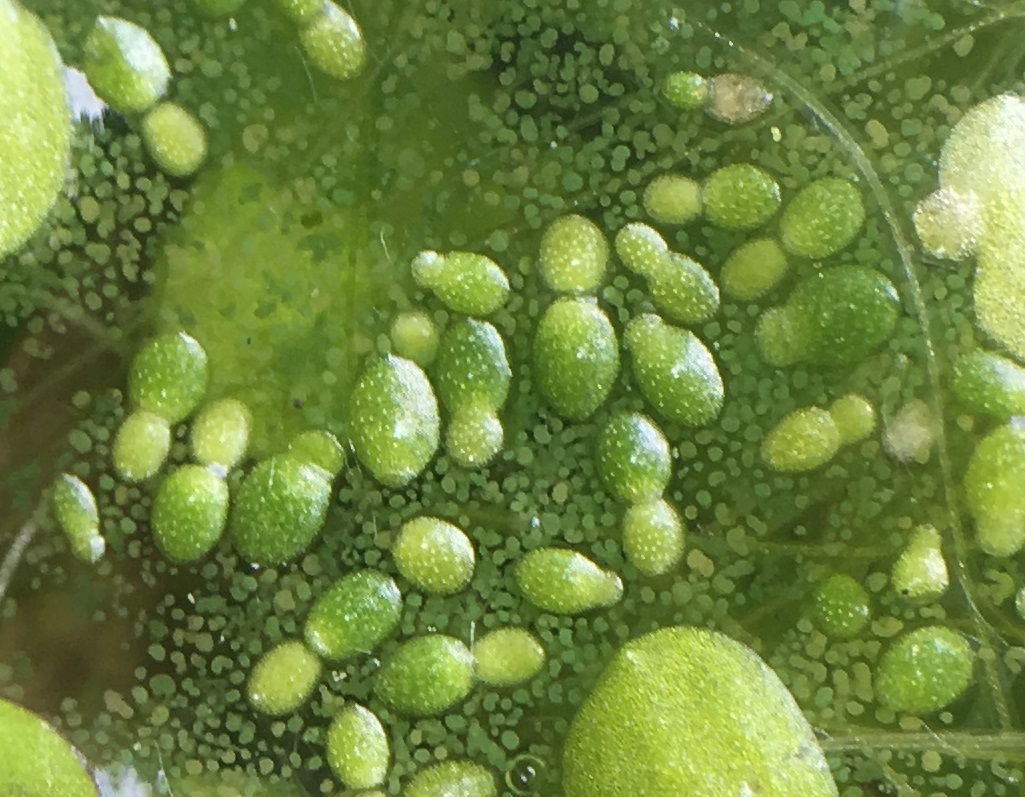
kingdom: Plantae
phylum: Tracheophyta
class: Liliopsida
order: Alismatales
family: Araceae
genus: Wolffia
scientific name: Wolffia brasiliensis
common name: Brazilian watermeal
